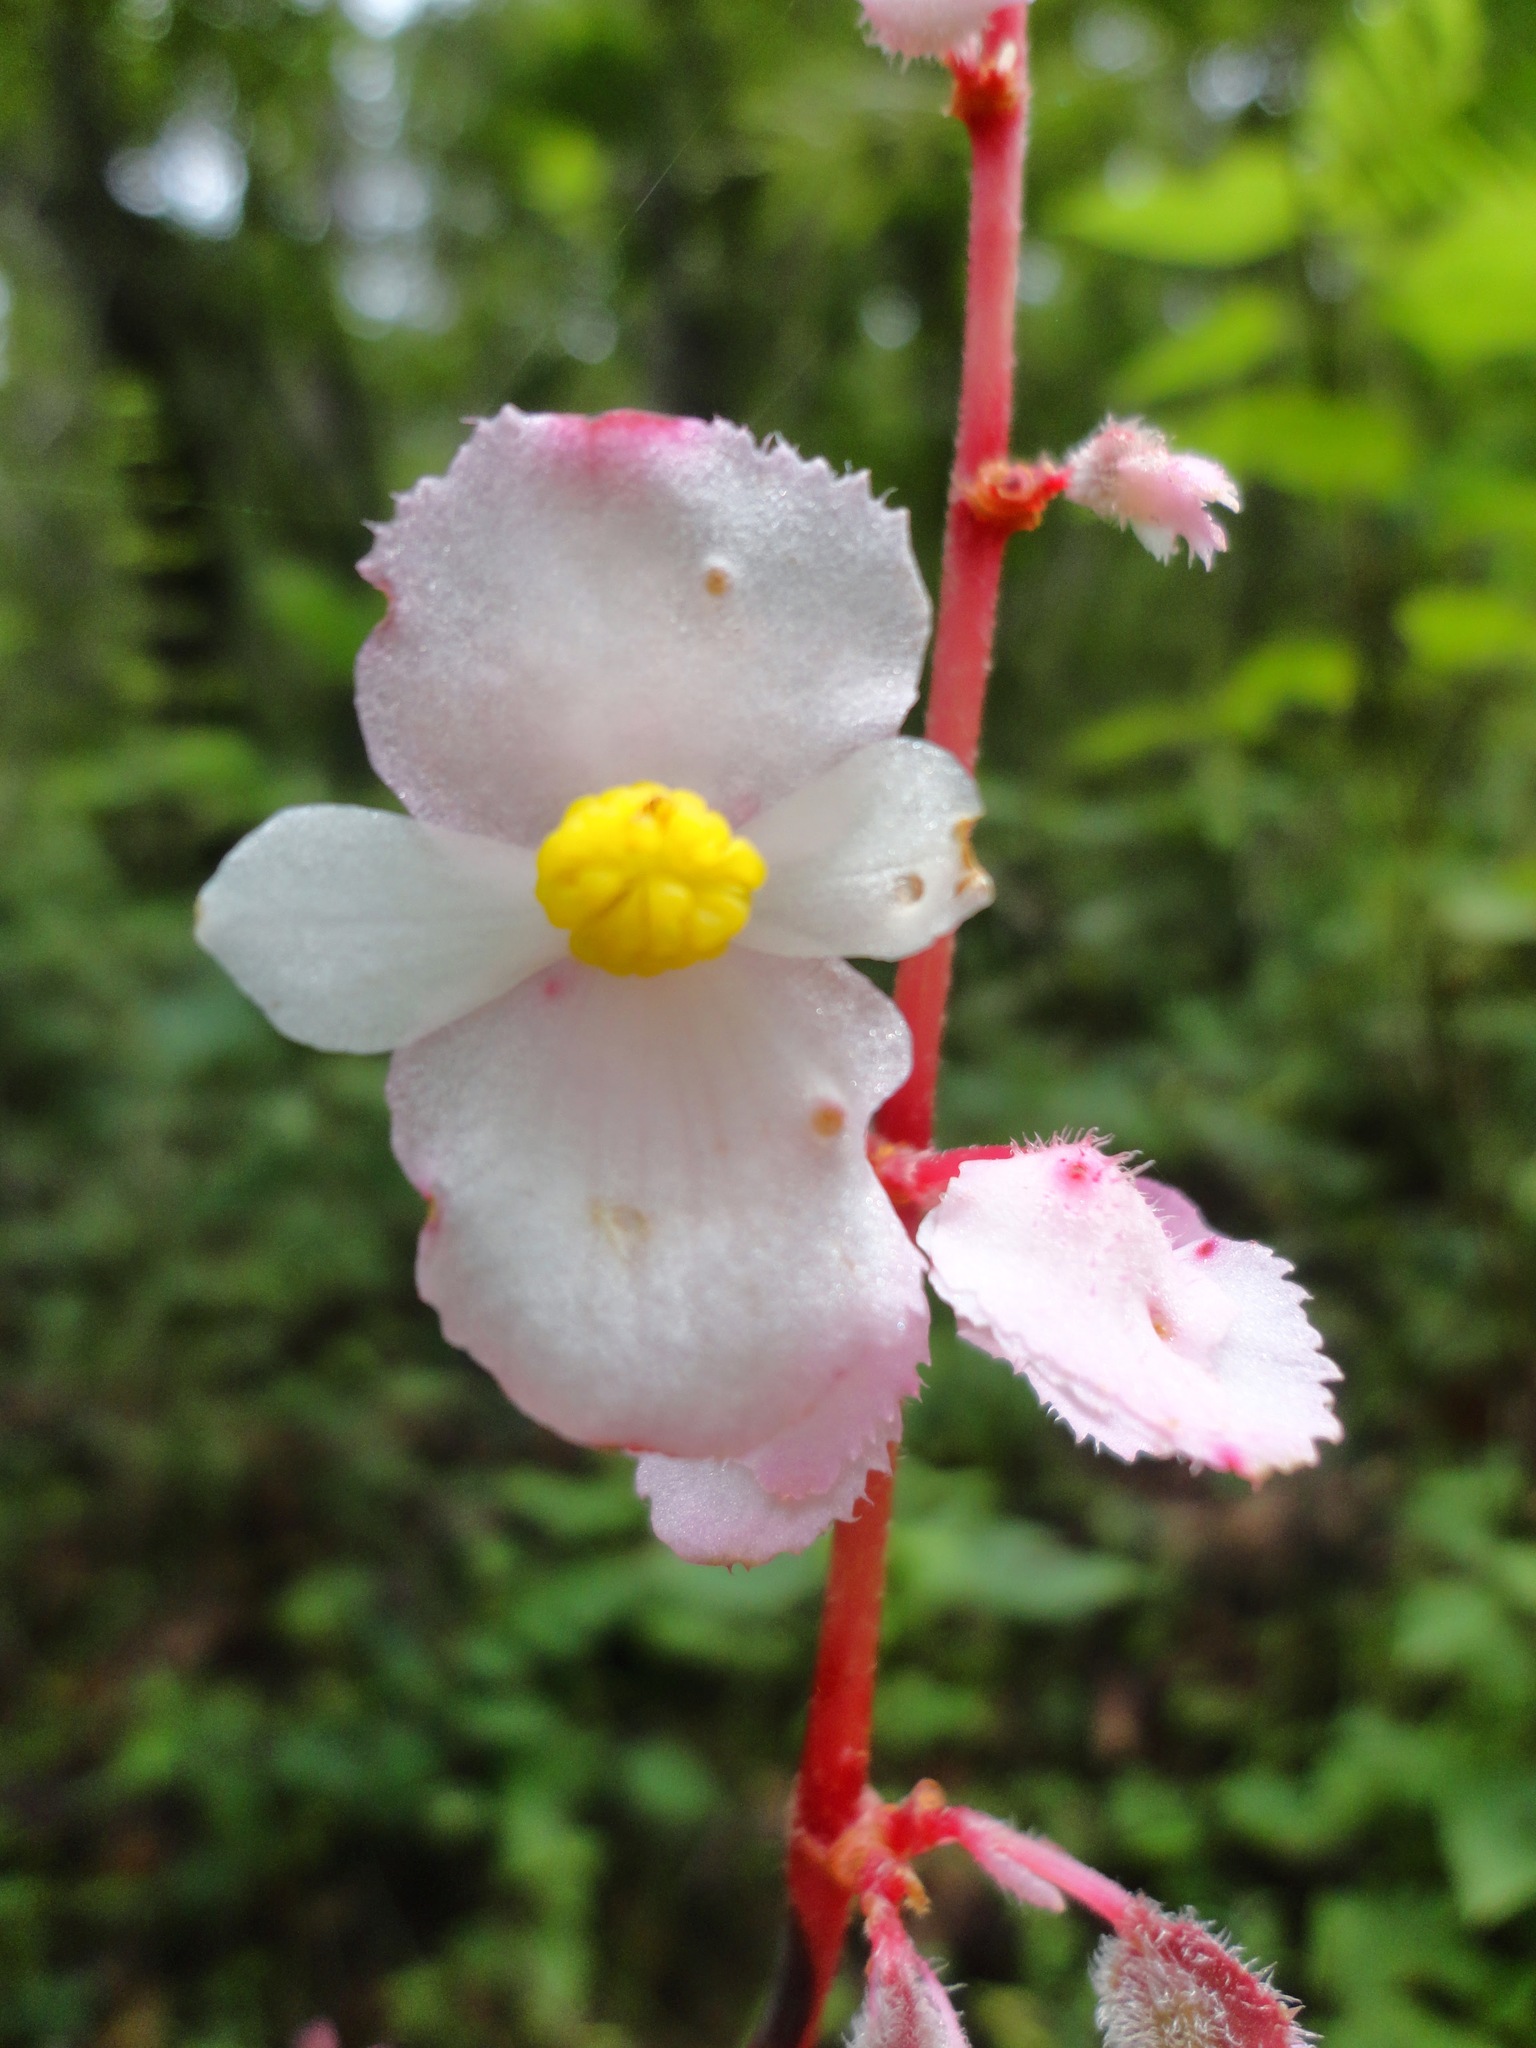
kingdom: Plantae
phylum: Tracheophyta
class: Magnoliopsida
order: Cucurbitales
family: Begoniaceae
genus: Begonia
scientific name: Begonia pedata
